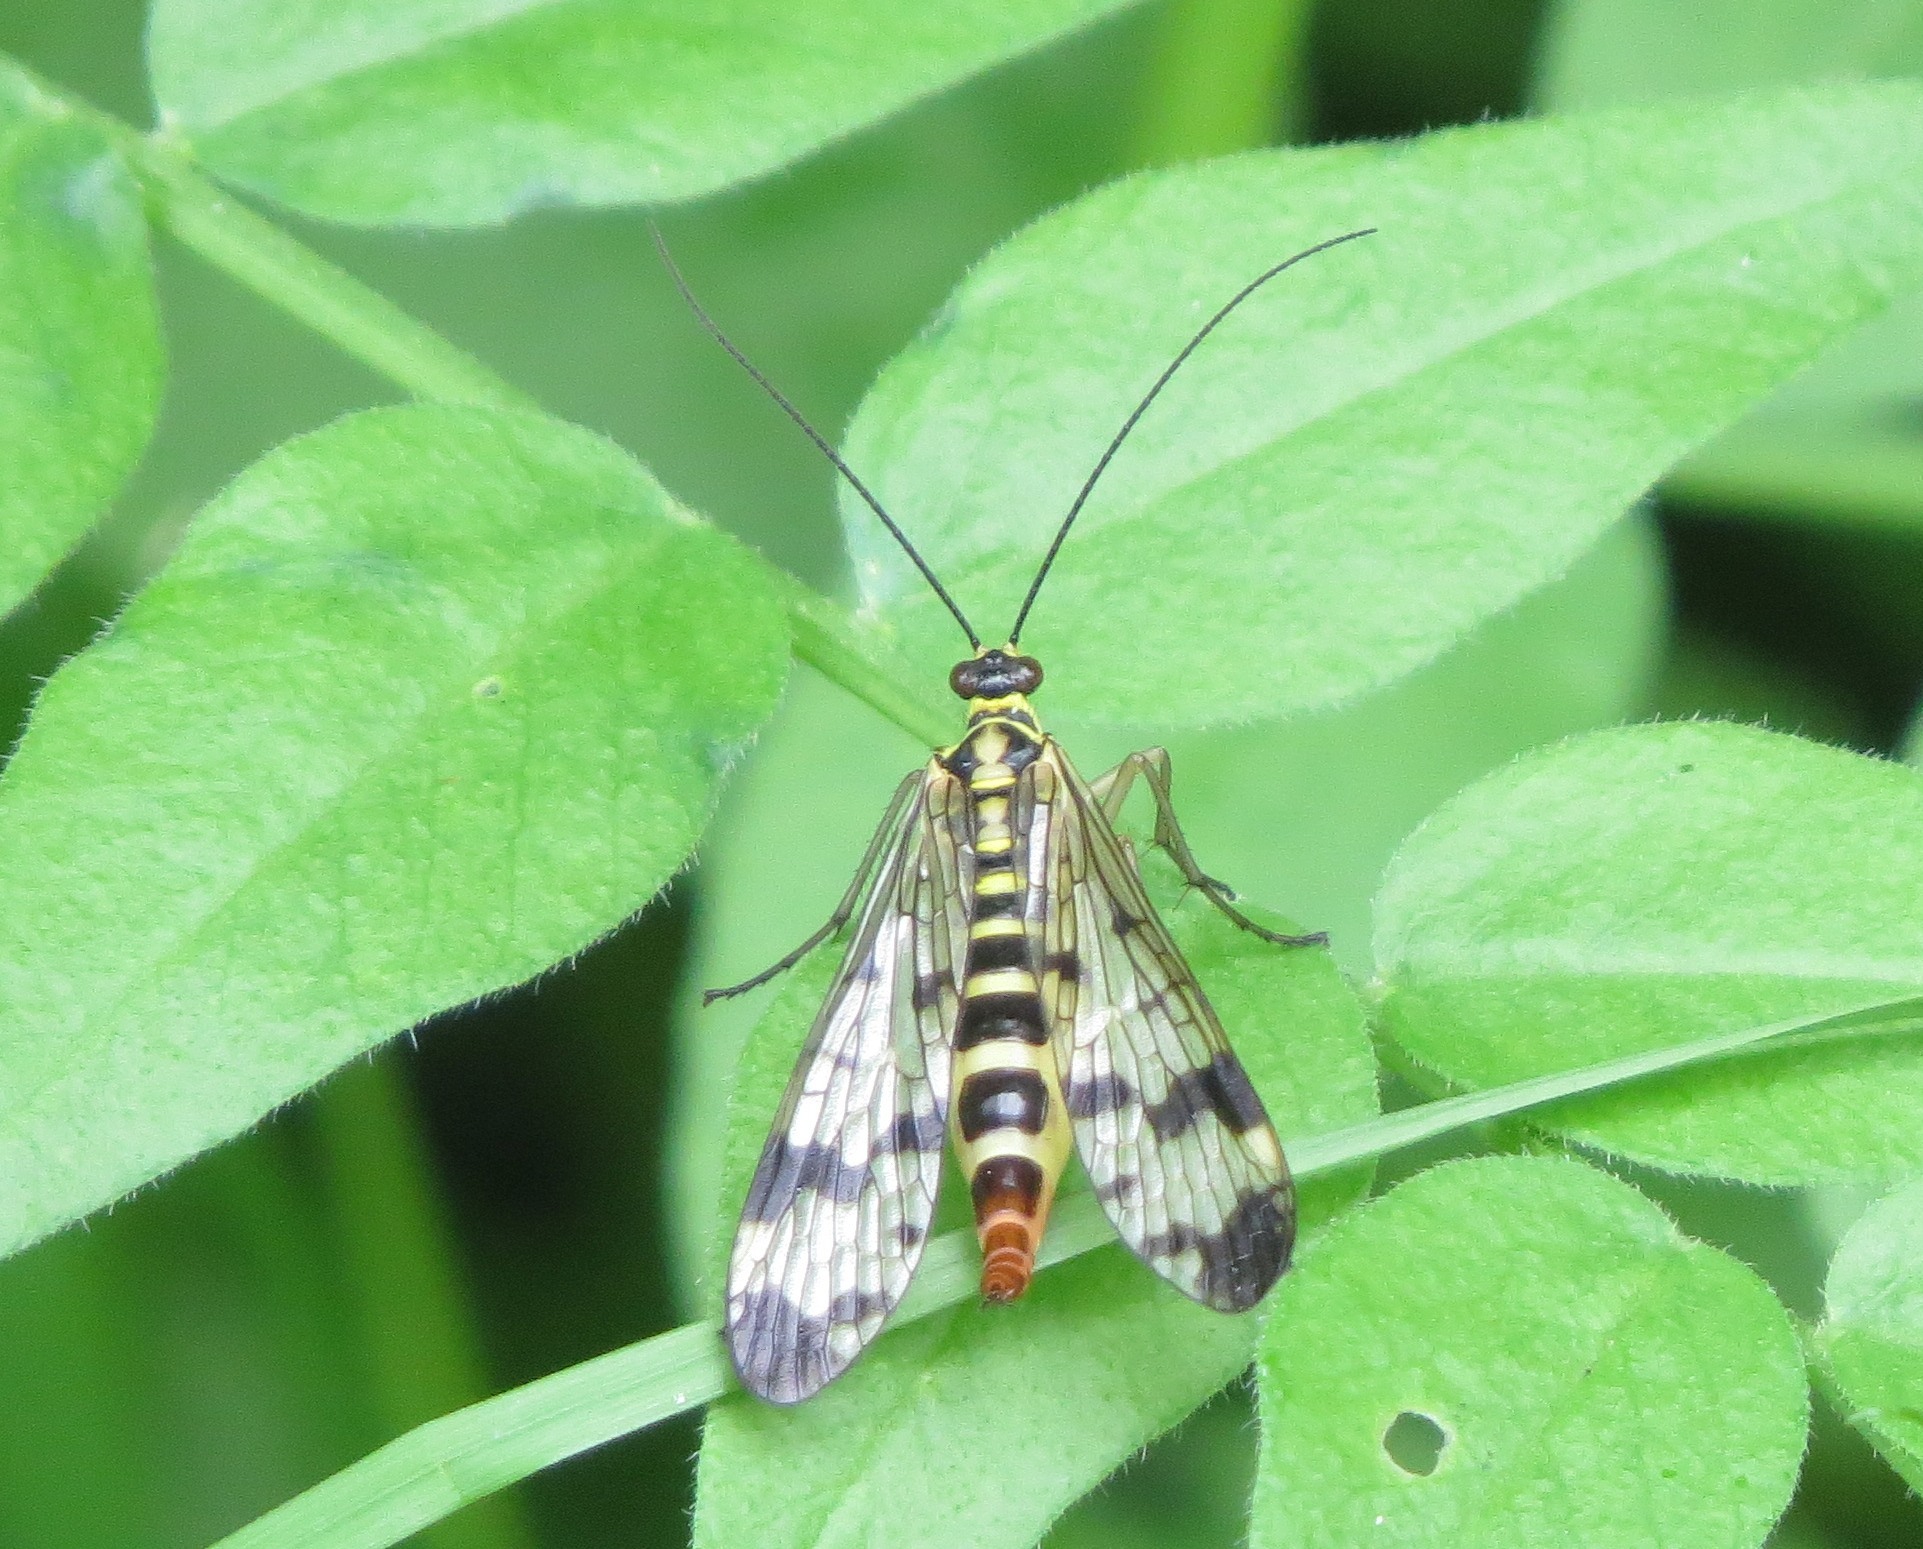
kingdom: Animalia
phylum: Arthropoda
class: Insecta
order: Mecoptera
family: Panorpidae
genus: Panorpa
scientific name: Panorpa communis
